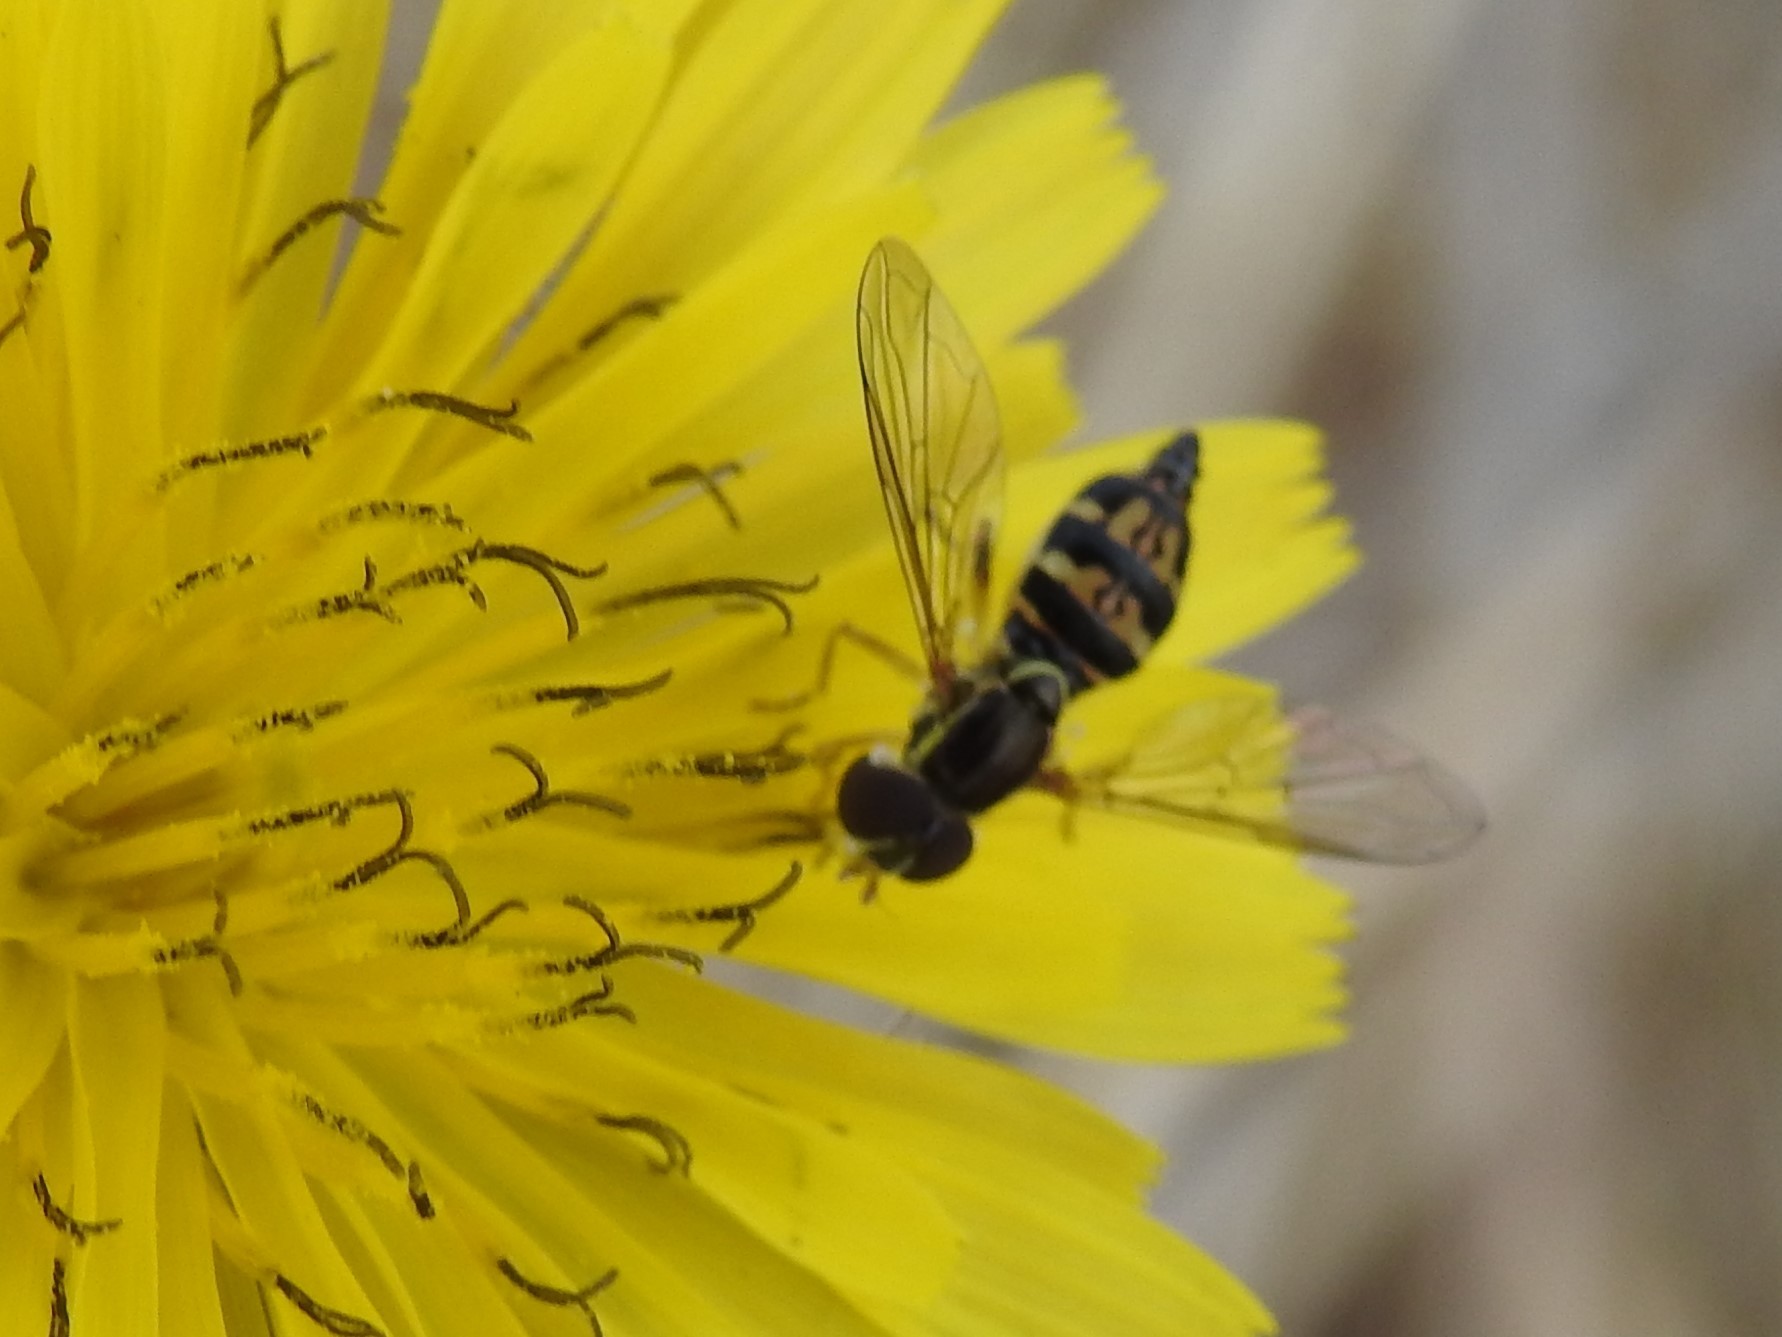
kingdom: Animalia
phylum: Arthropoda
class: Insecta
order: Diptera
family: Syrphidae
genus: Toxomerus
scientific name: Toxomerus occidentalis
